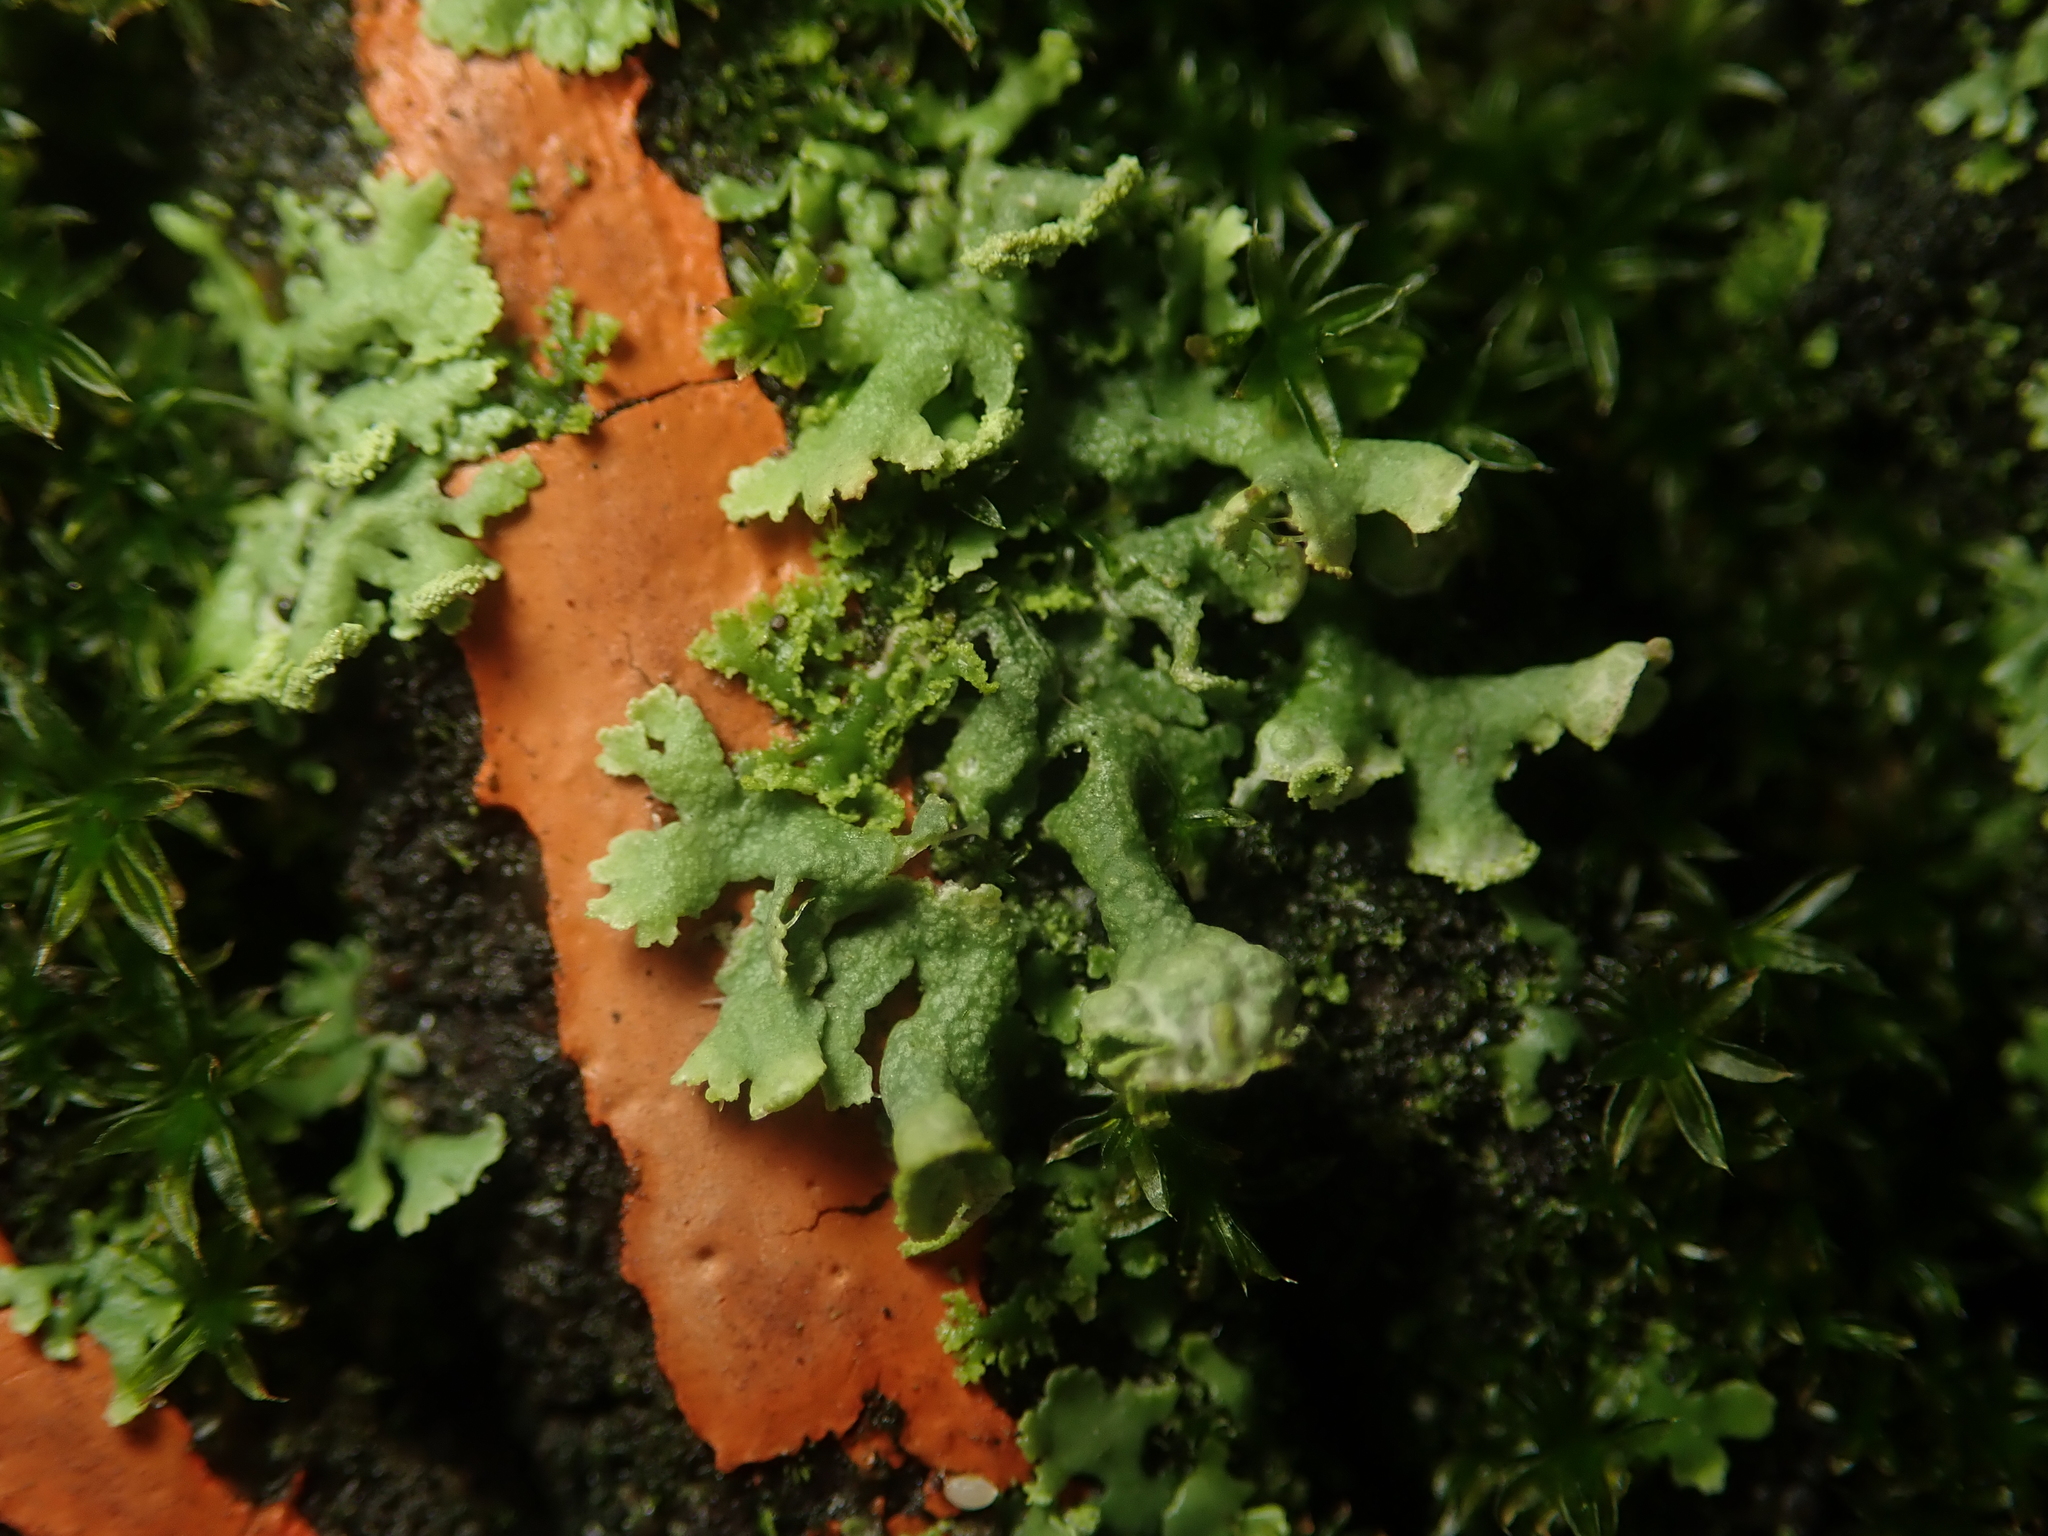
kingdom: Fungi
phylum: Ascomycota
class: Lecanoromycetes
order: Caliciales
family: Physciaceae
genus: Physcia
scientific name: Physcia adscendens
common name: Hooded rosette lichen
